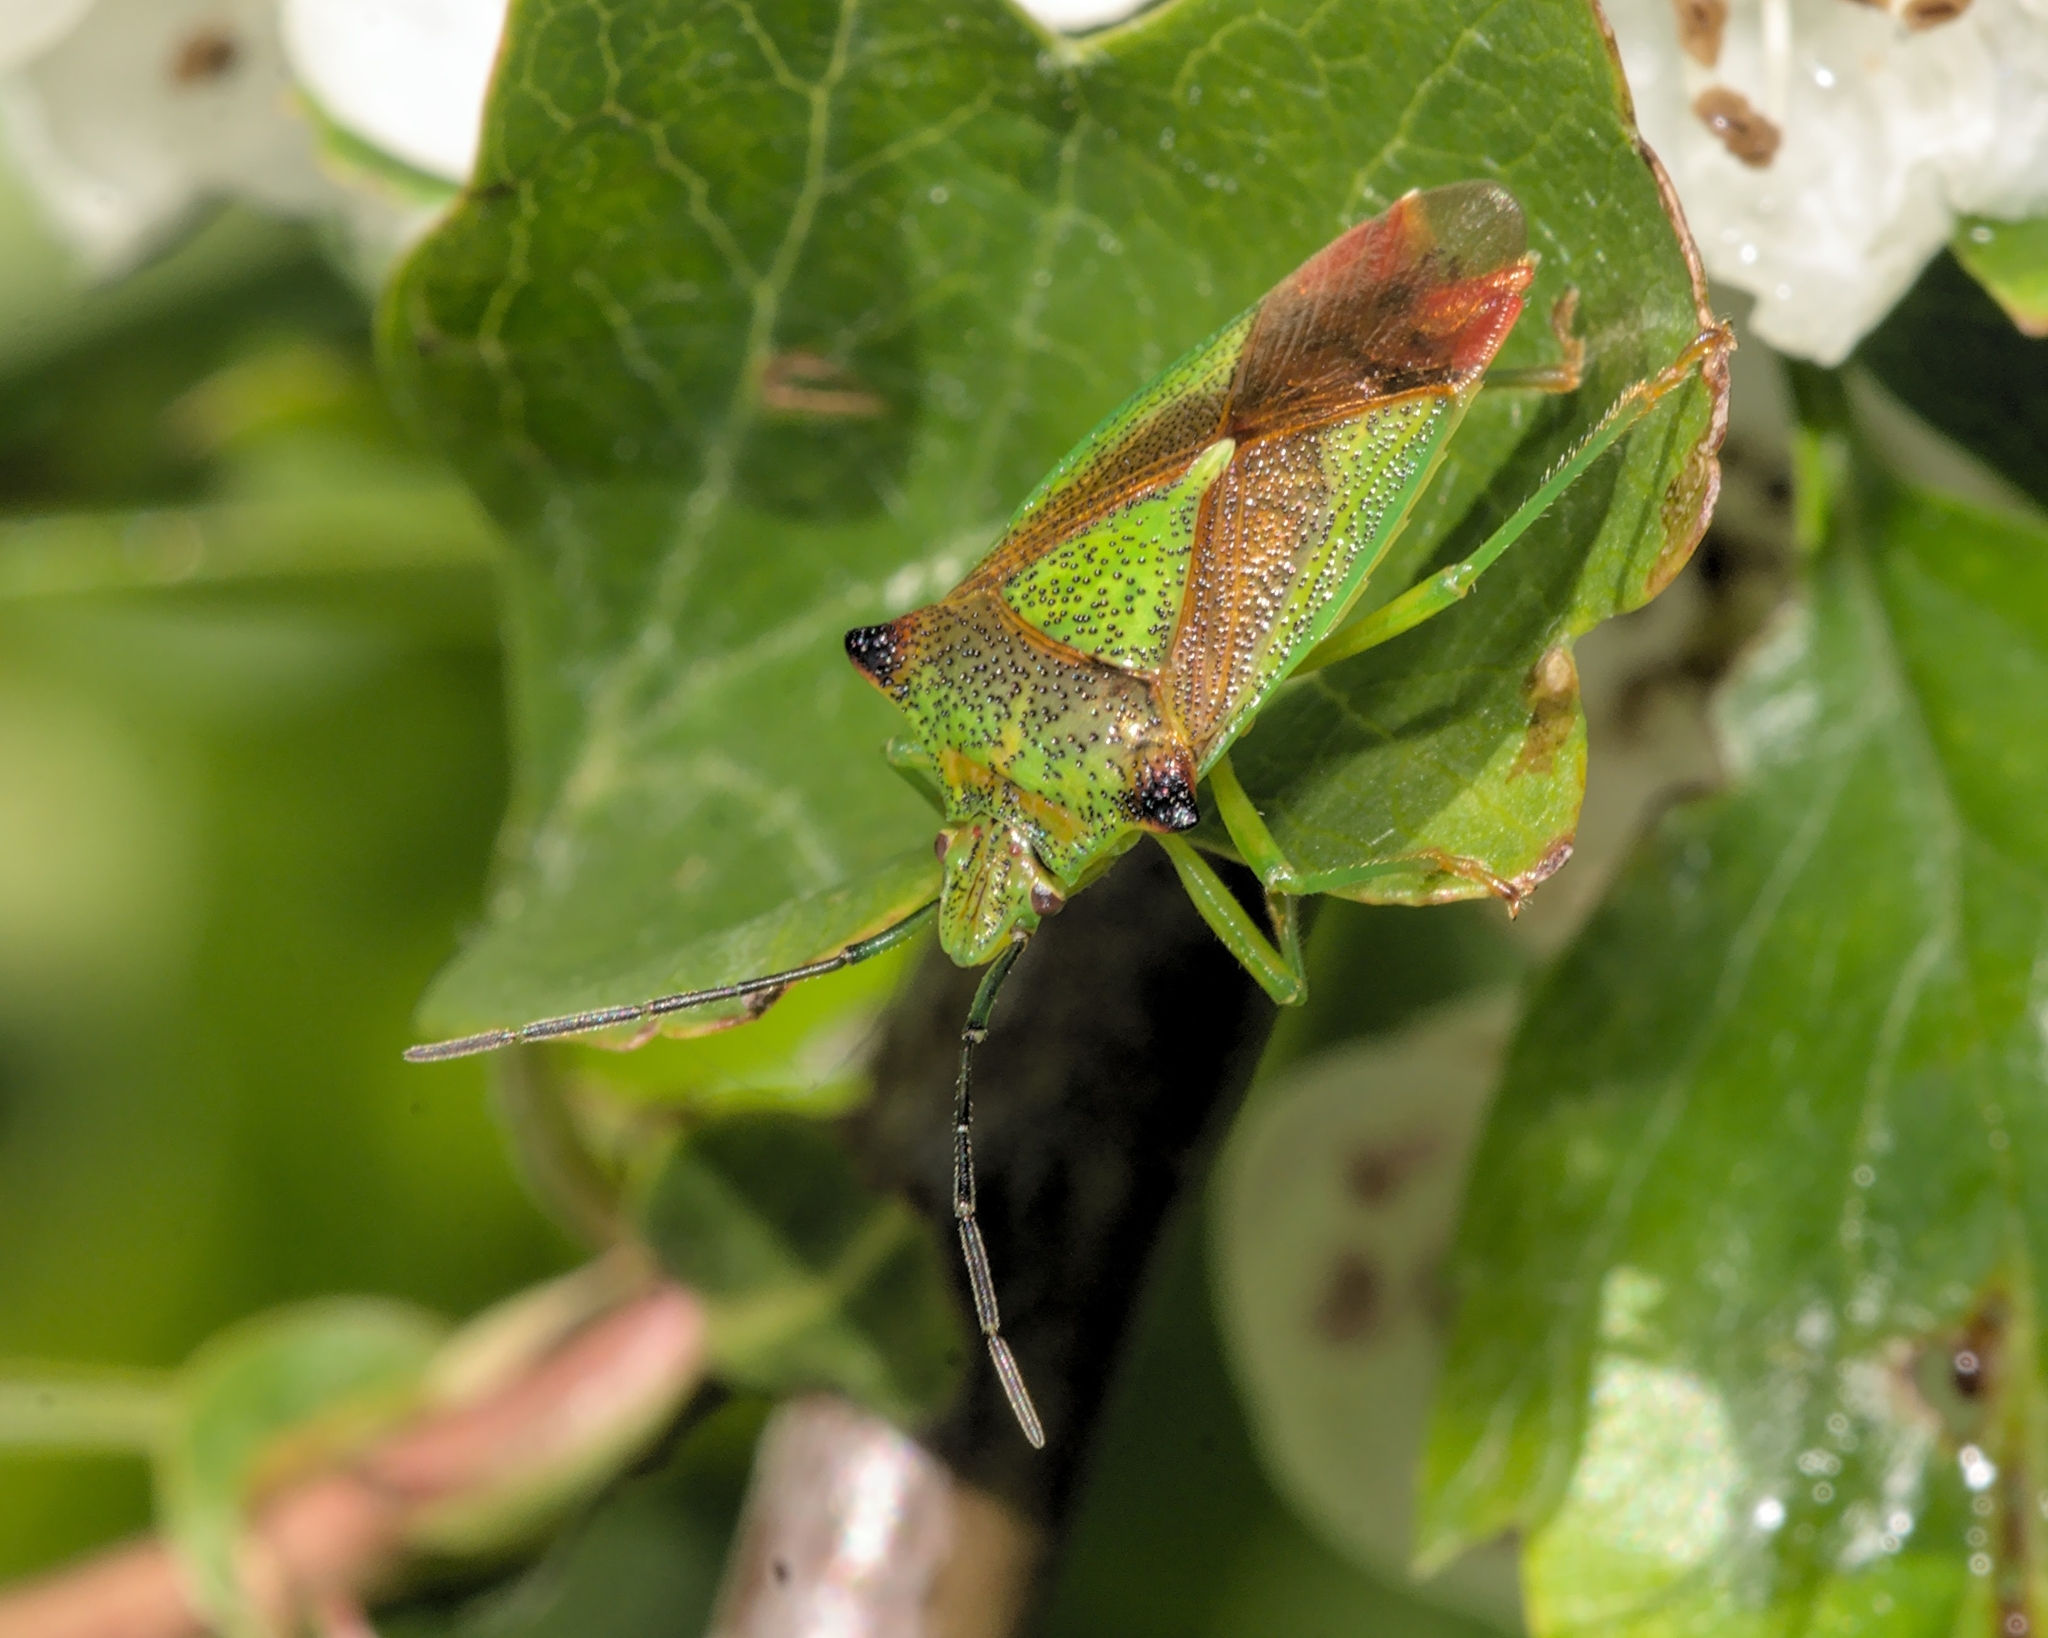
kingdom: Animalia
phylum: Arthropoda
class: Insecta
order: Hemiptera
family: Acanthosomatidae
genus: Acanthosoma
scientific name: Acanthosoma haemorrhoidale
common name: Hawthorn shieldbug
